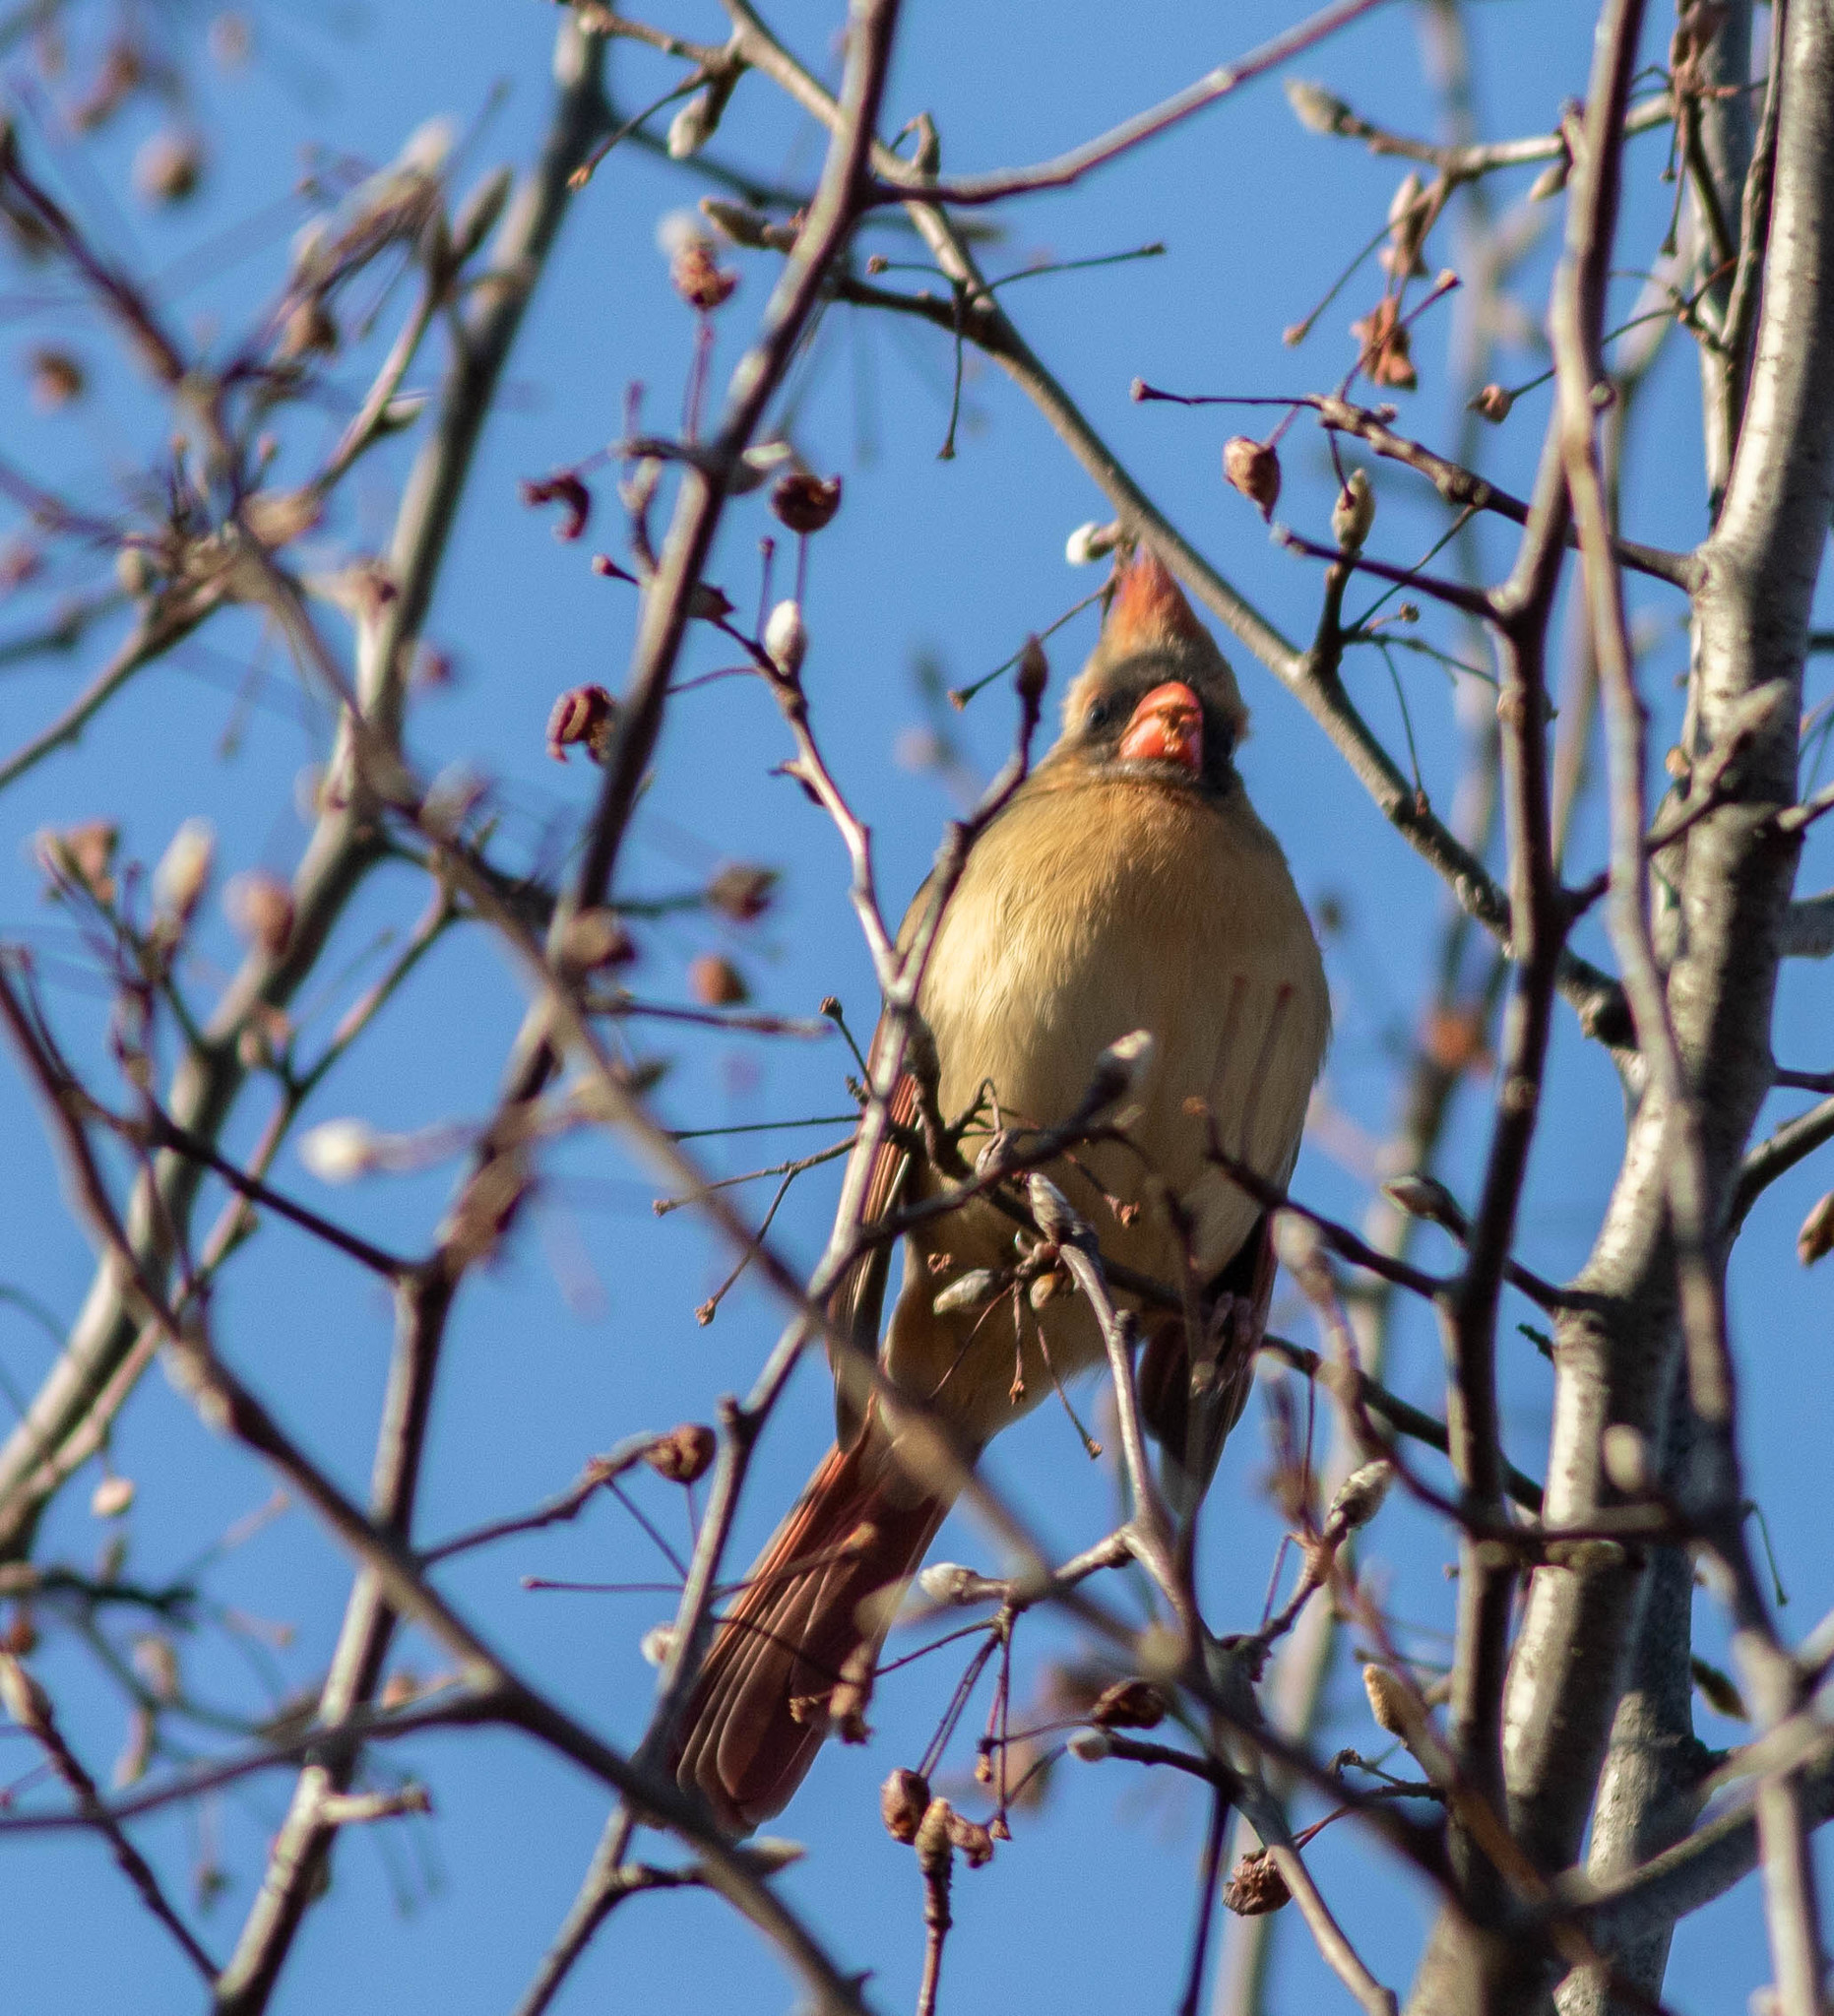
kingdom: Animalia
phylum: Chordata
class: Aves
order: Passeriformes
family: Cardinalidae
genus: Cardinalis
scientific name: Cardinalis cardinalis
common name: Northern cardinal
